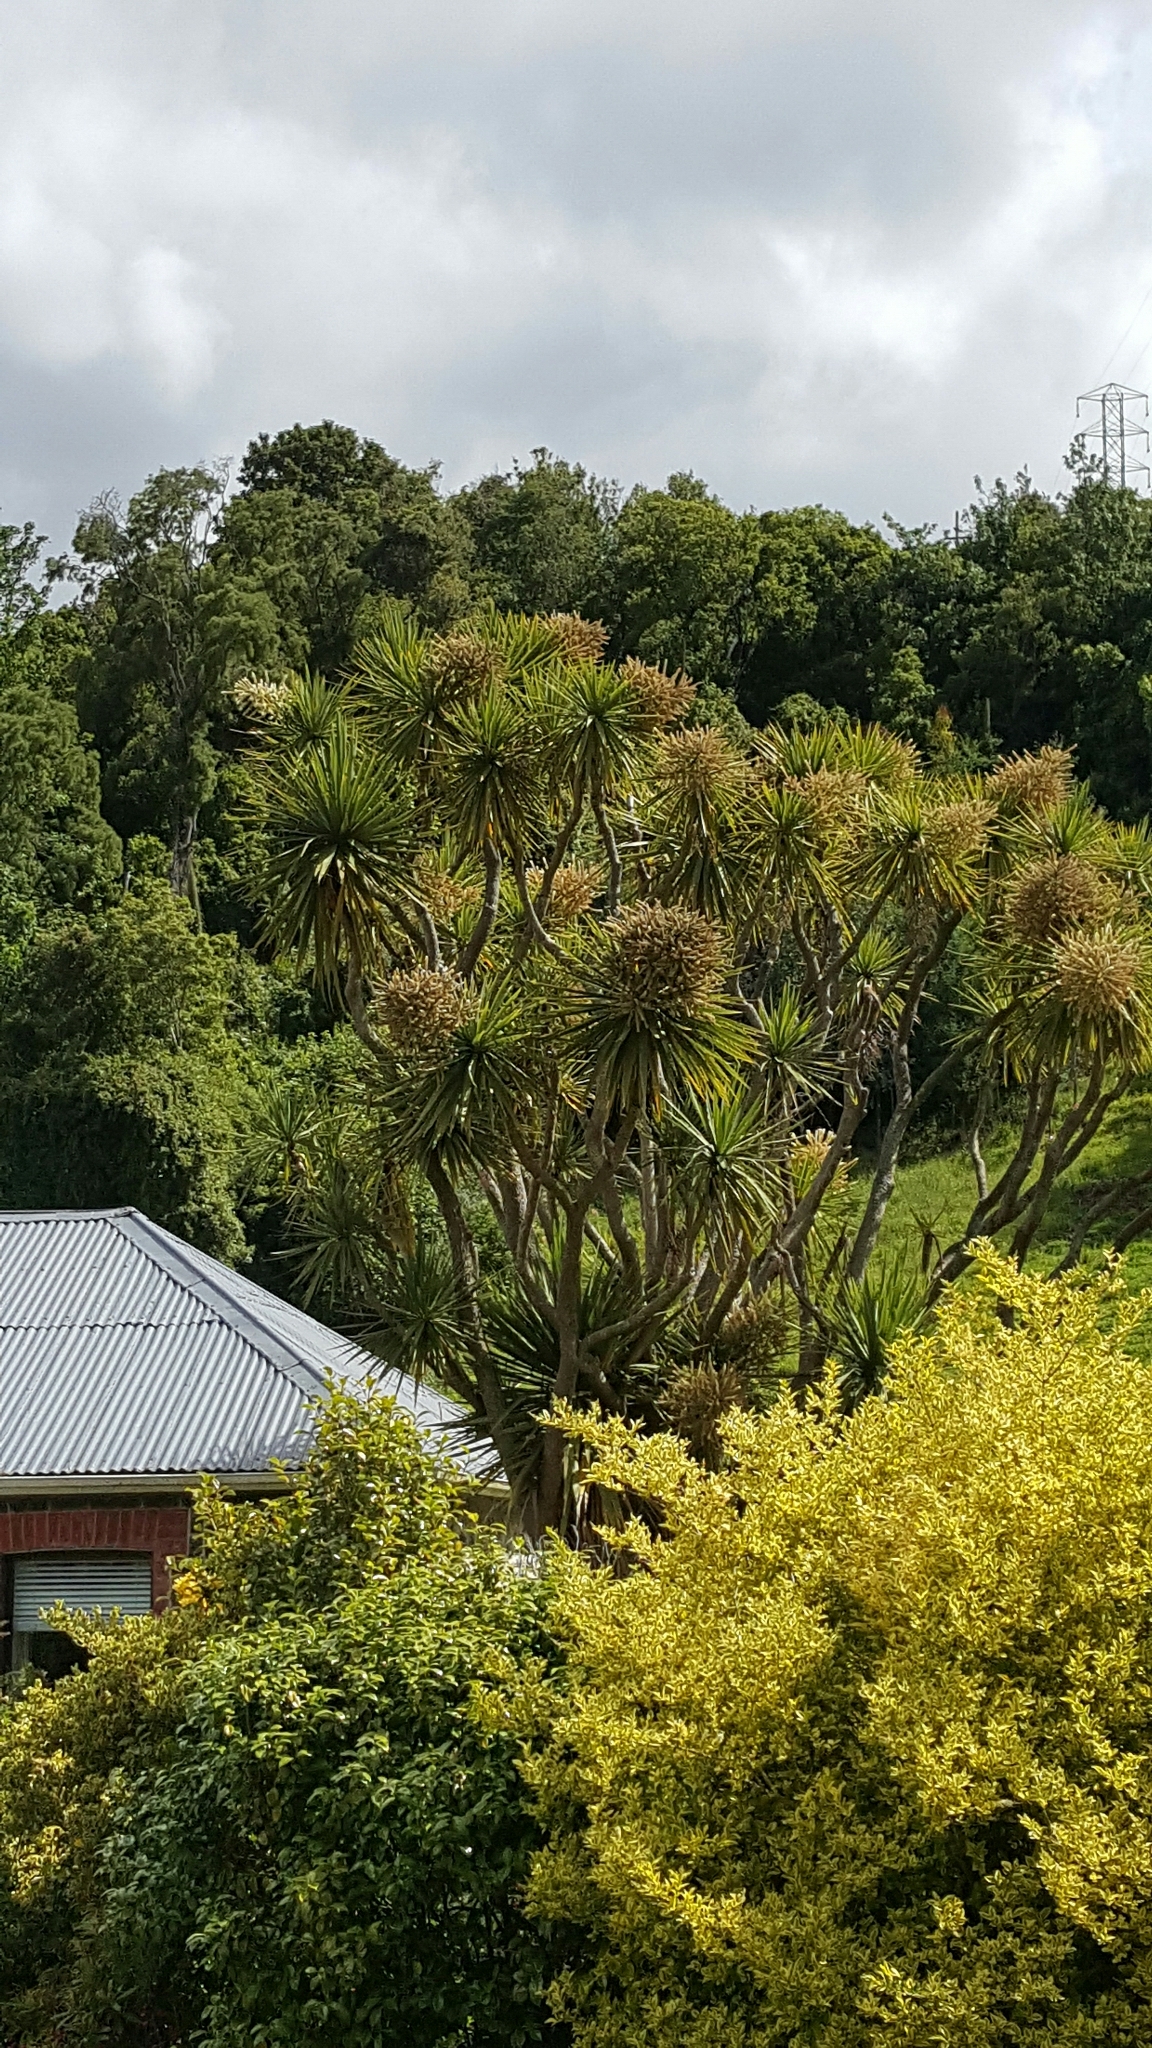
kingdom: Plantae
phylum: Tracheophyta
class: Liliopsida
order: Asparagales
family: Asparagaceae
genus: Cordyline
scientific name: Cordyline australis
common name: Cabbage-palm
